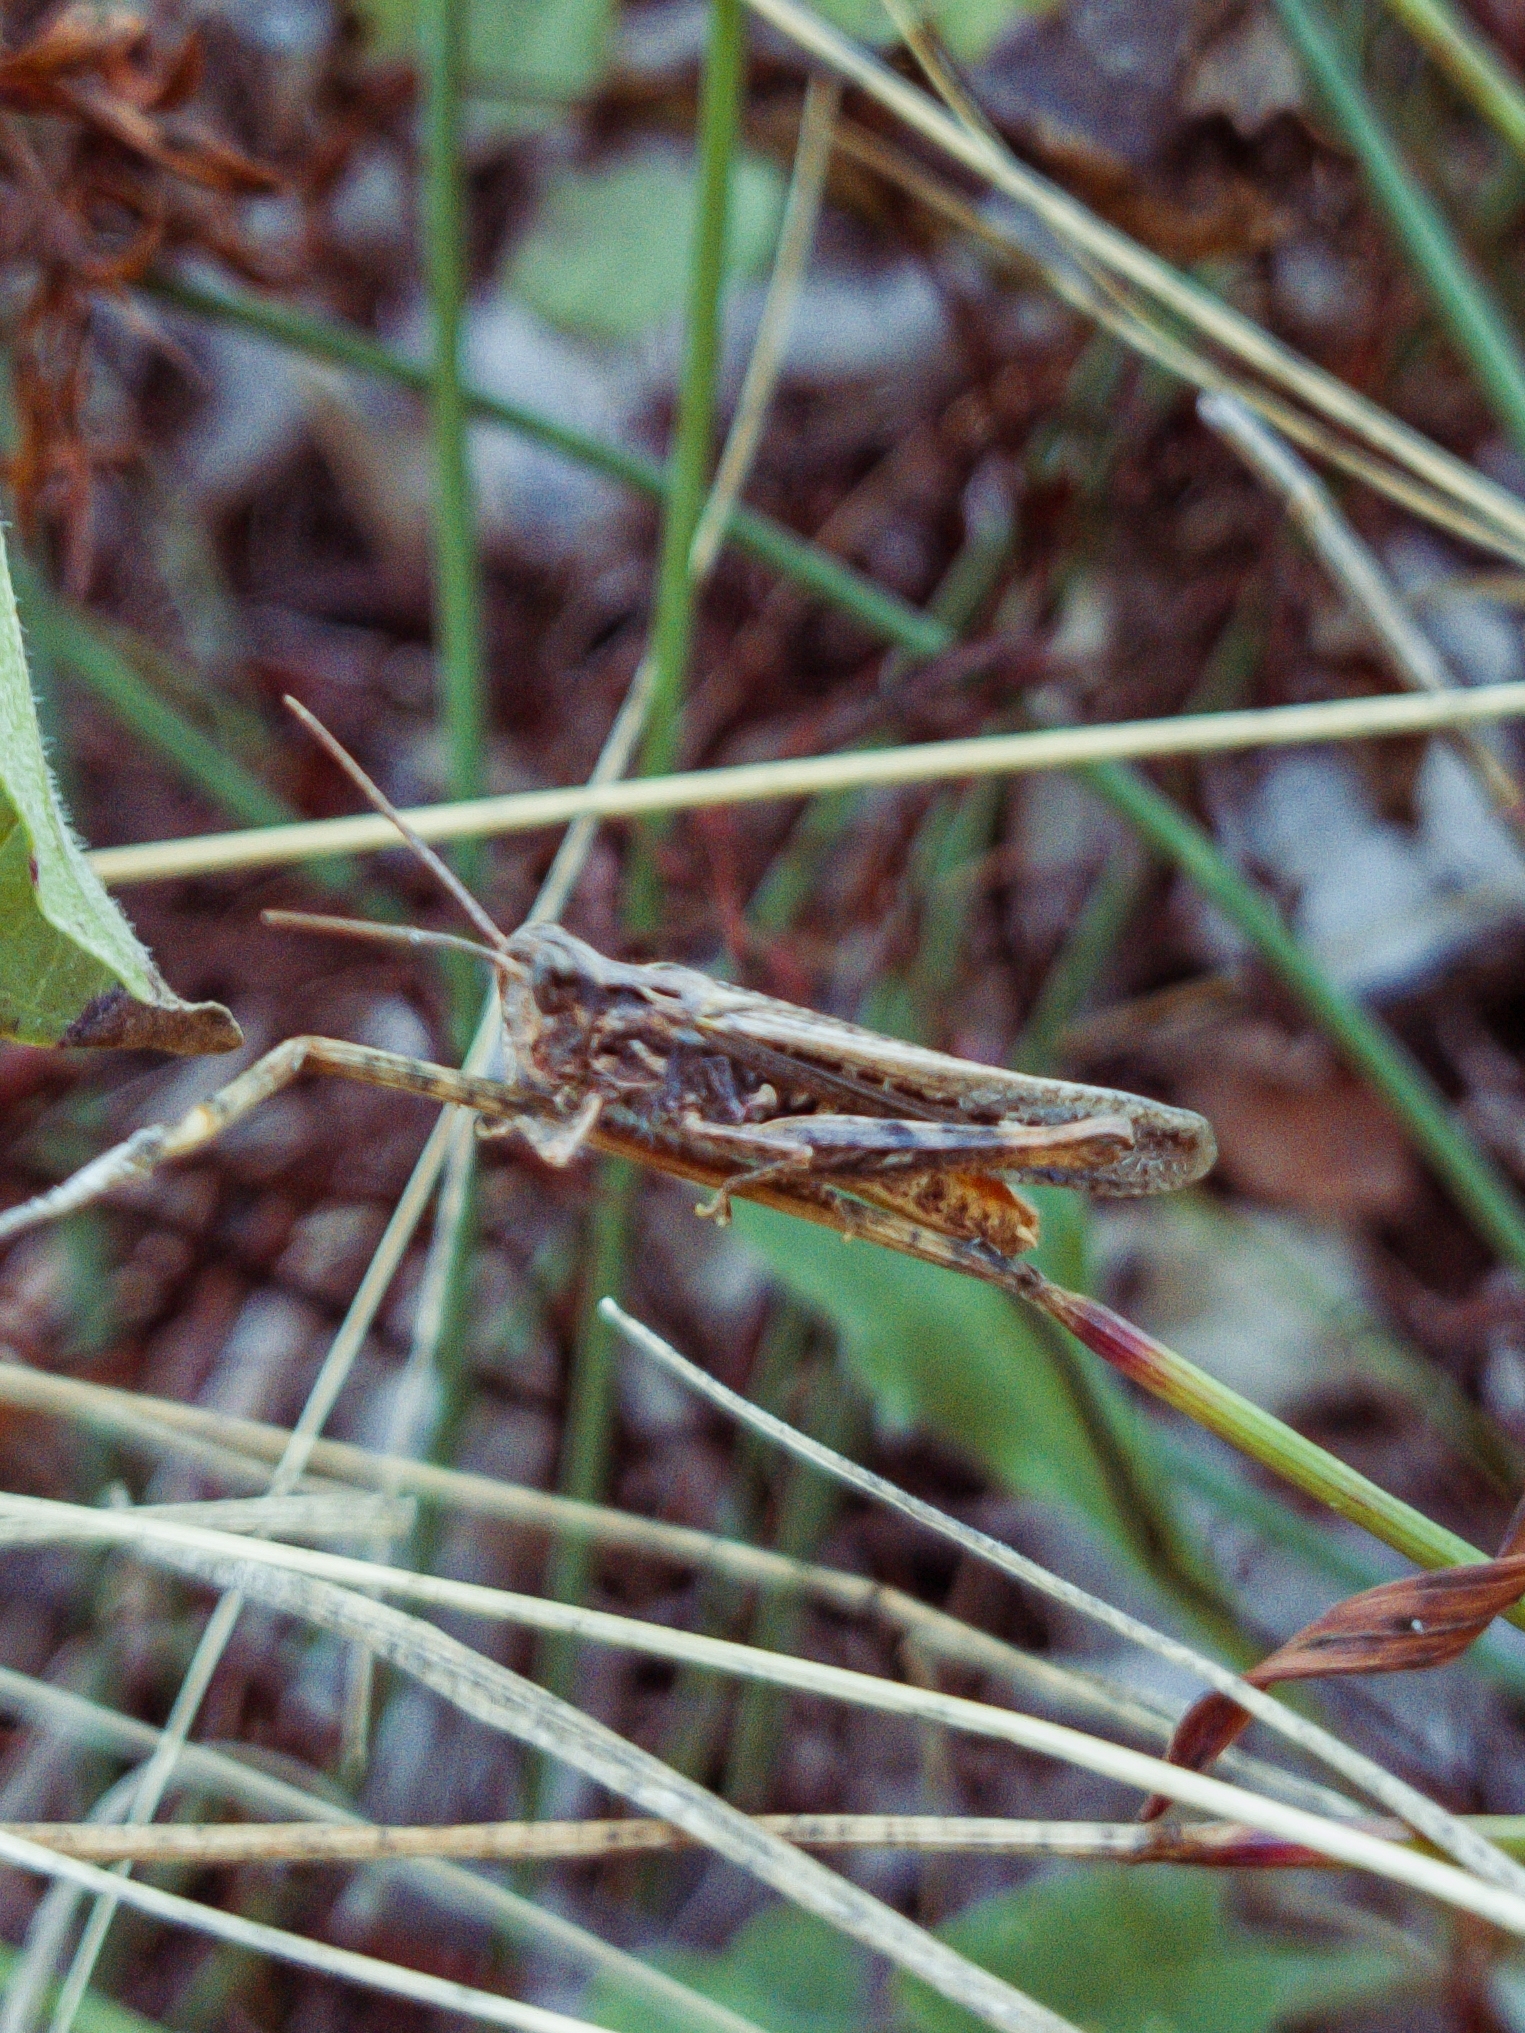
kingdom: Animalia
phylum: Arthropoda
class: Insecta
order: Orthoptera
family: Acrididae
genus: Chorthippus
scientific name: Chorthippus brunneus
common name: Field grasshopper
